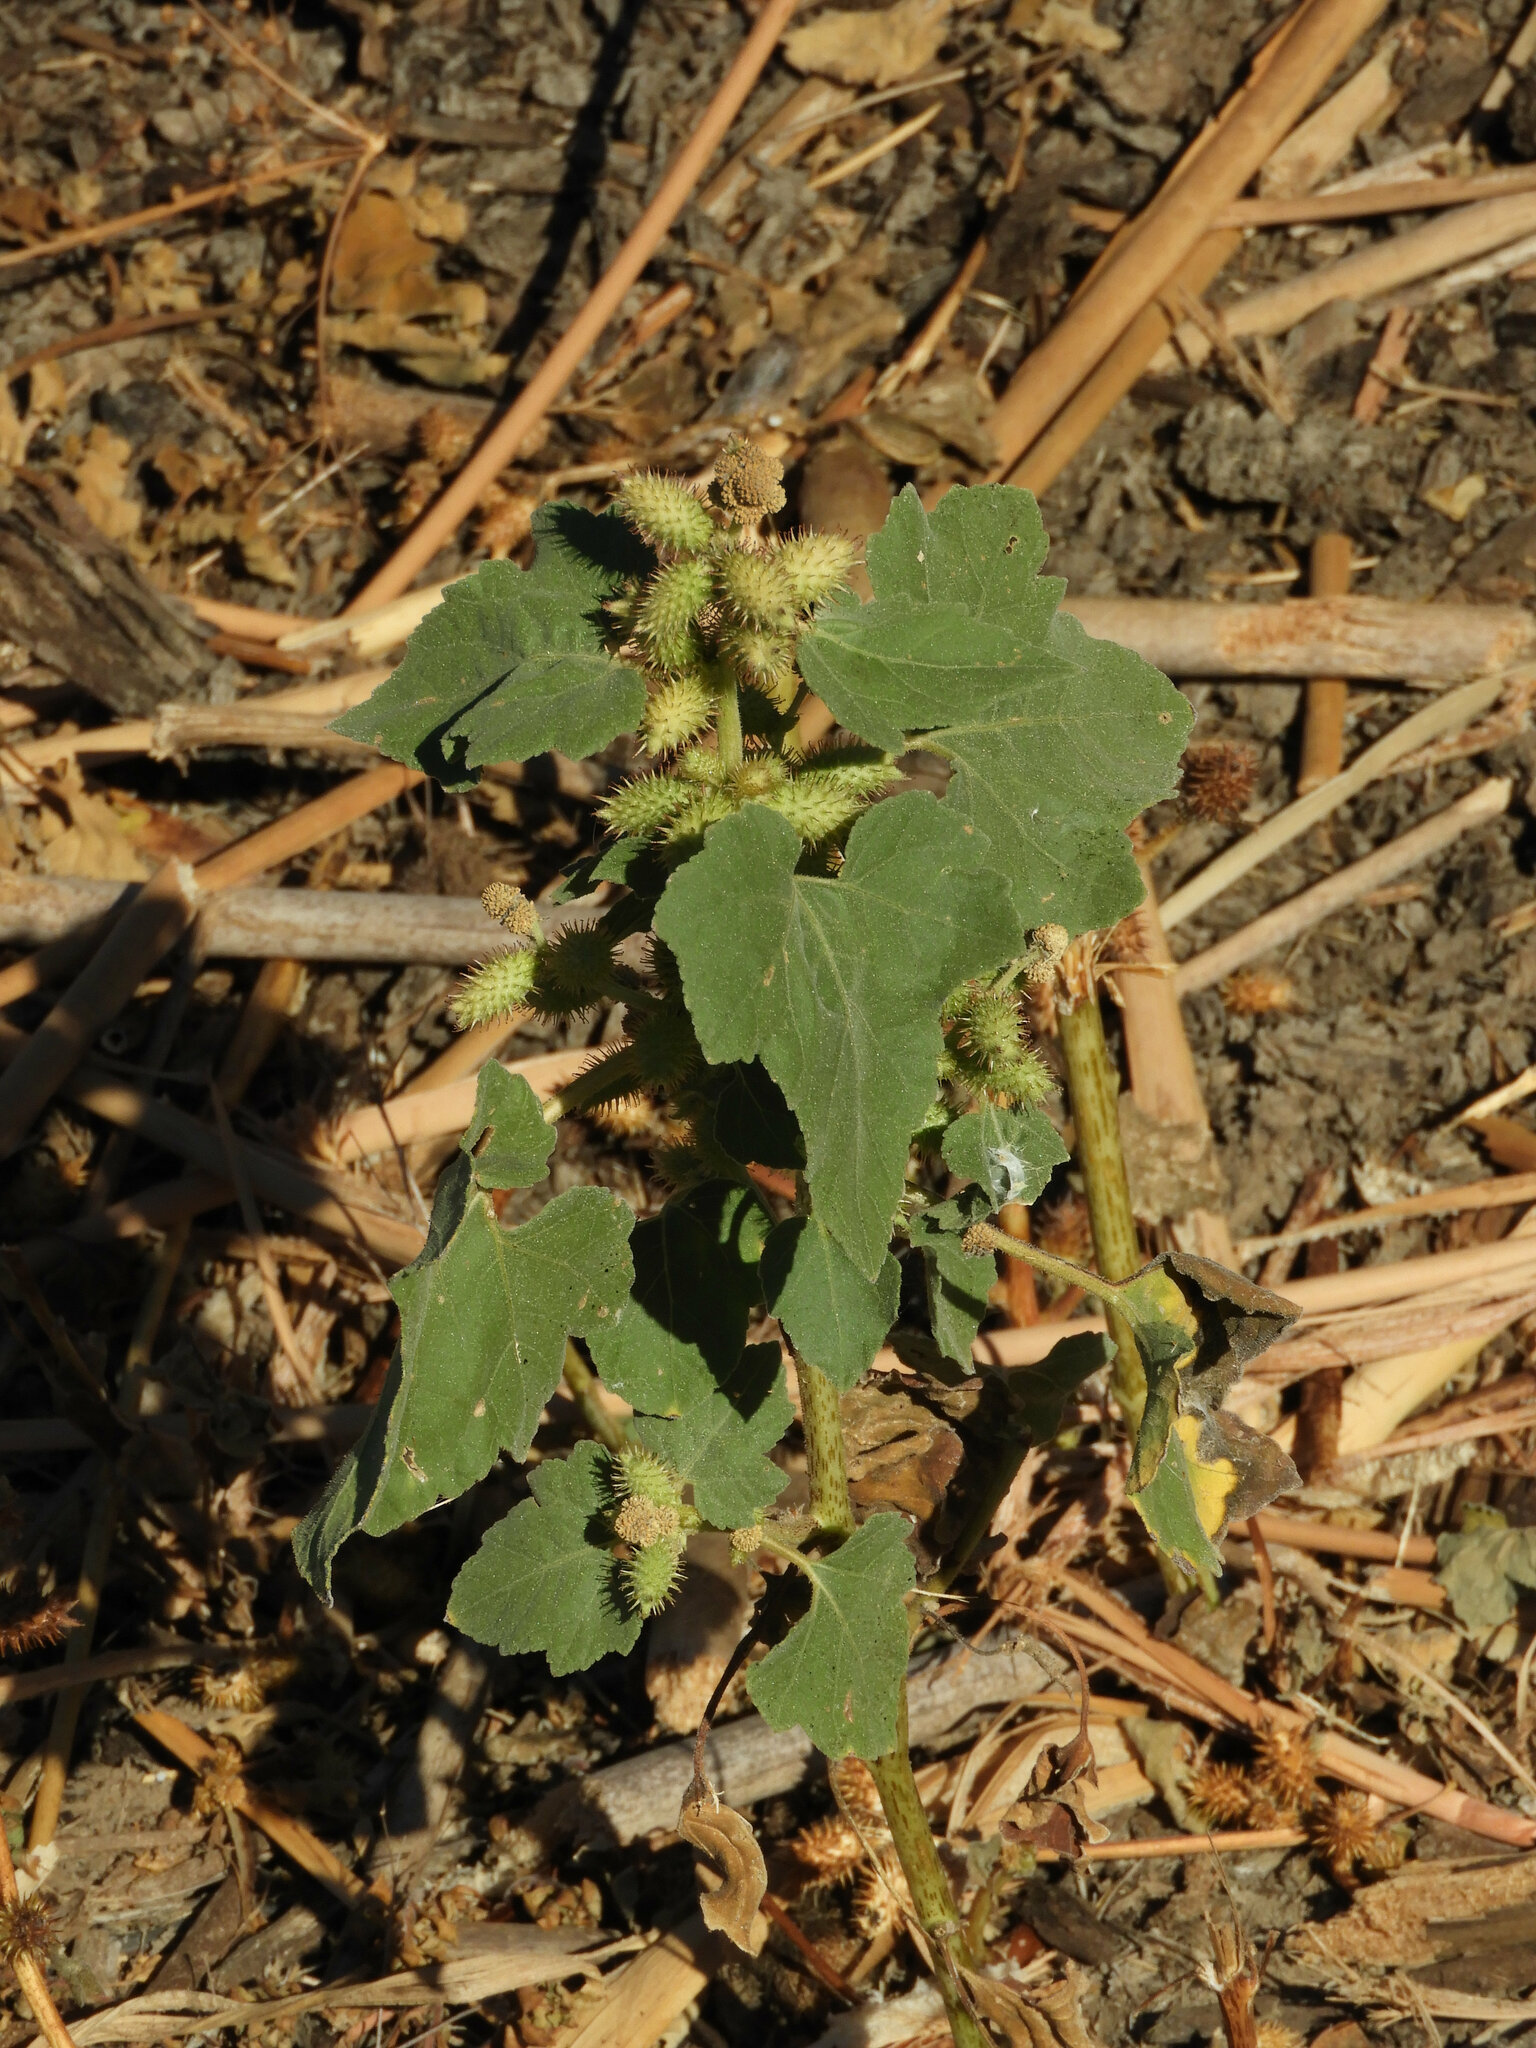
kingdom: Plantae
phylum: Tracheophyta
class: Magnoliopsida
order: Asterales
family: Asteraceae
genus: Xanthium
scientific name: Xanthium strumarium
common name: Rough cocklebur
